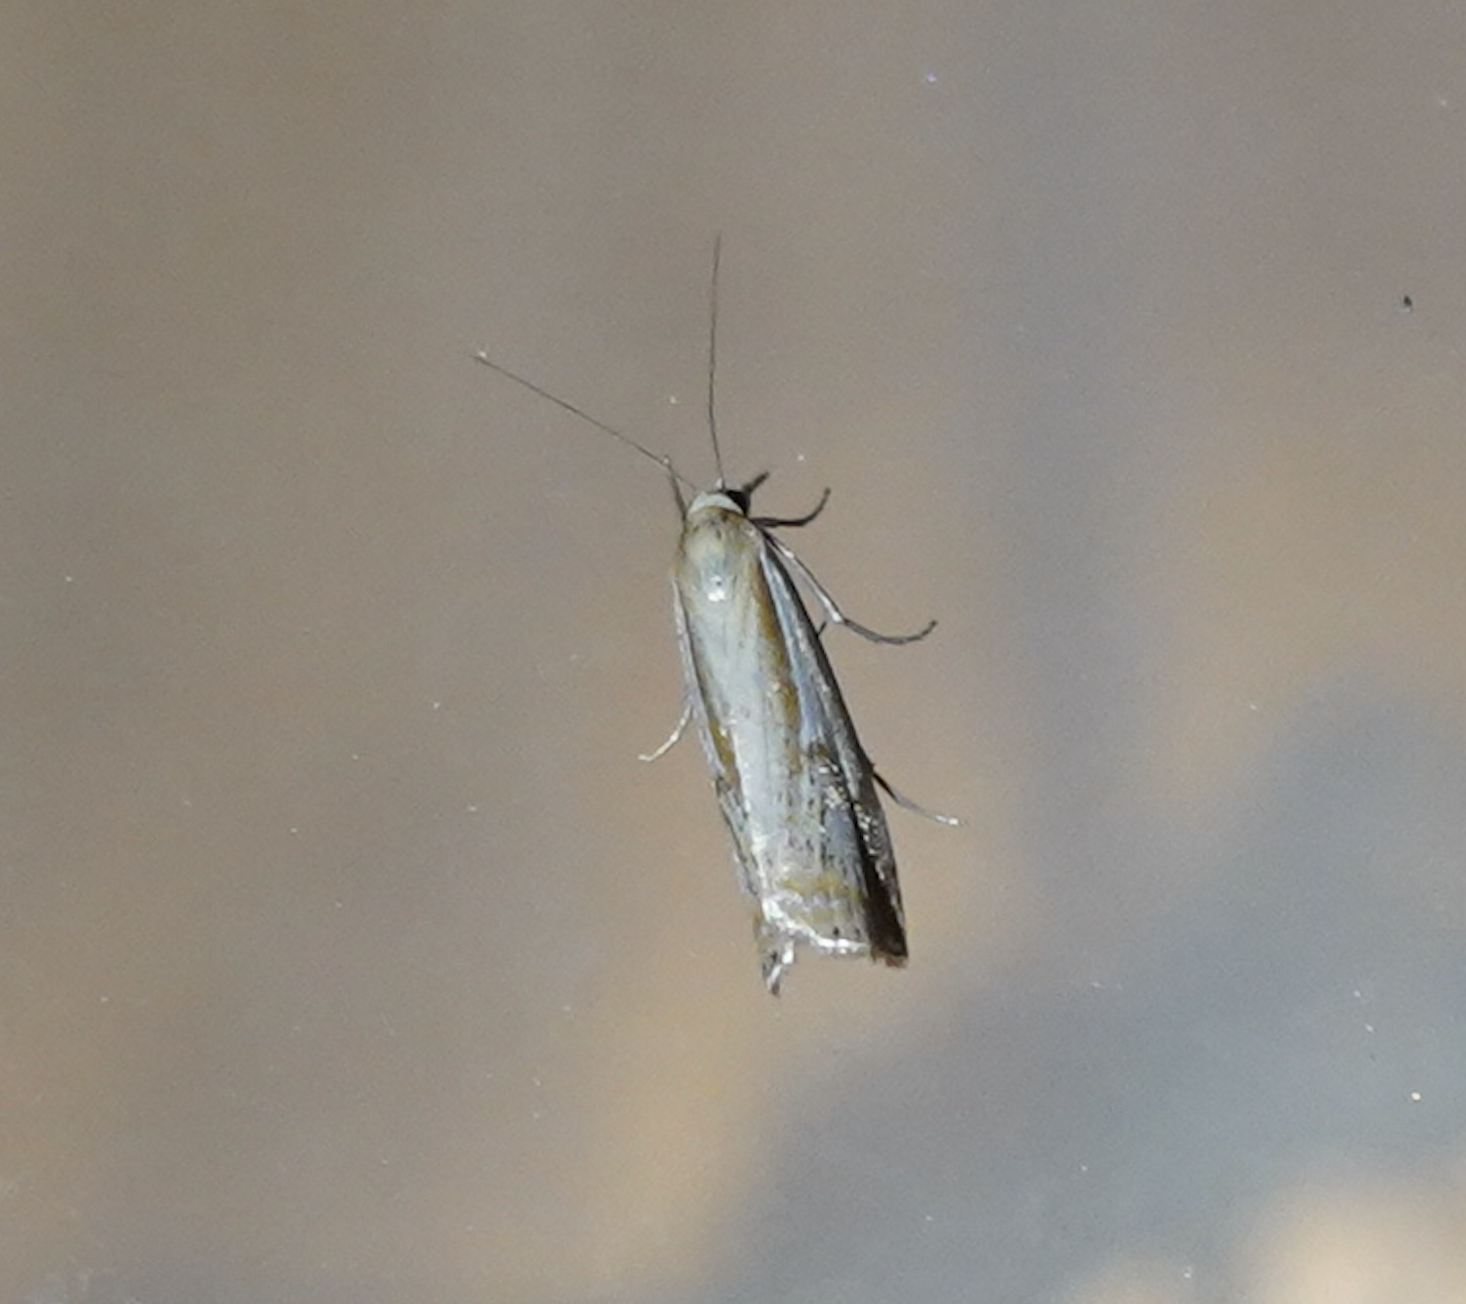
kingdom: Animalia
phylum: Arthropoda
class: Insecta
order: Lepidoptera
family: Crambidae
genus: Crambus
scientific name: Crambus agitatellus
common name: Double-banded grass-veneer
